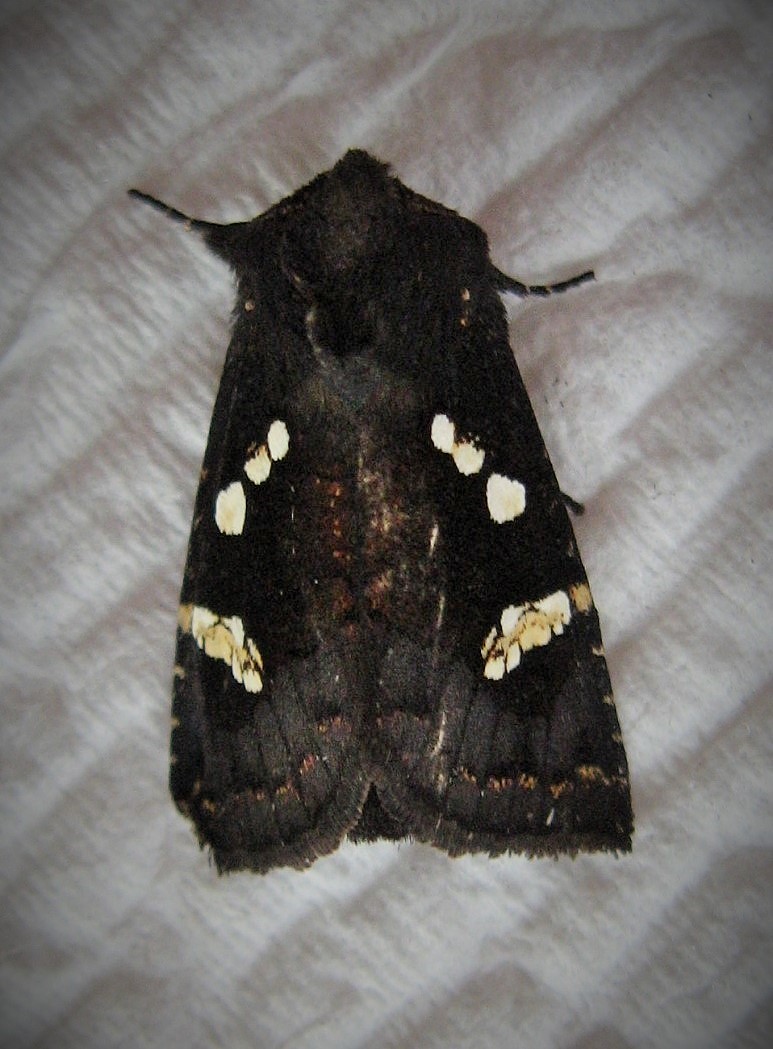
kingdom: Animalia
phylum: Arthropoda
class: Insecta
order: Lepidoptera
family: Noctuidae
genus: Papaipema
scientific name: Papaipema sciata
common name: Cluvers root borer
